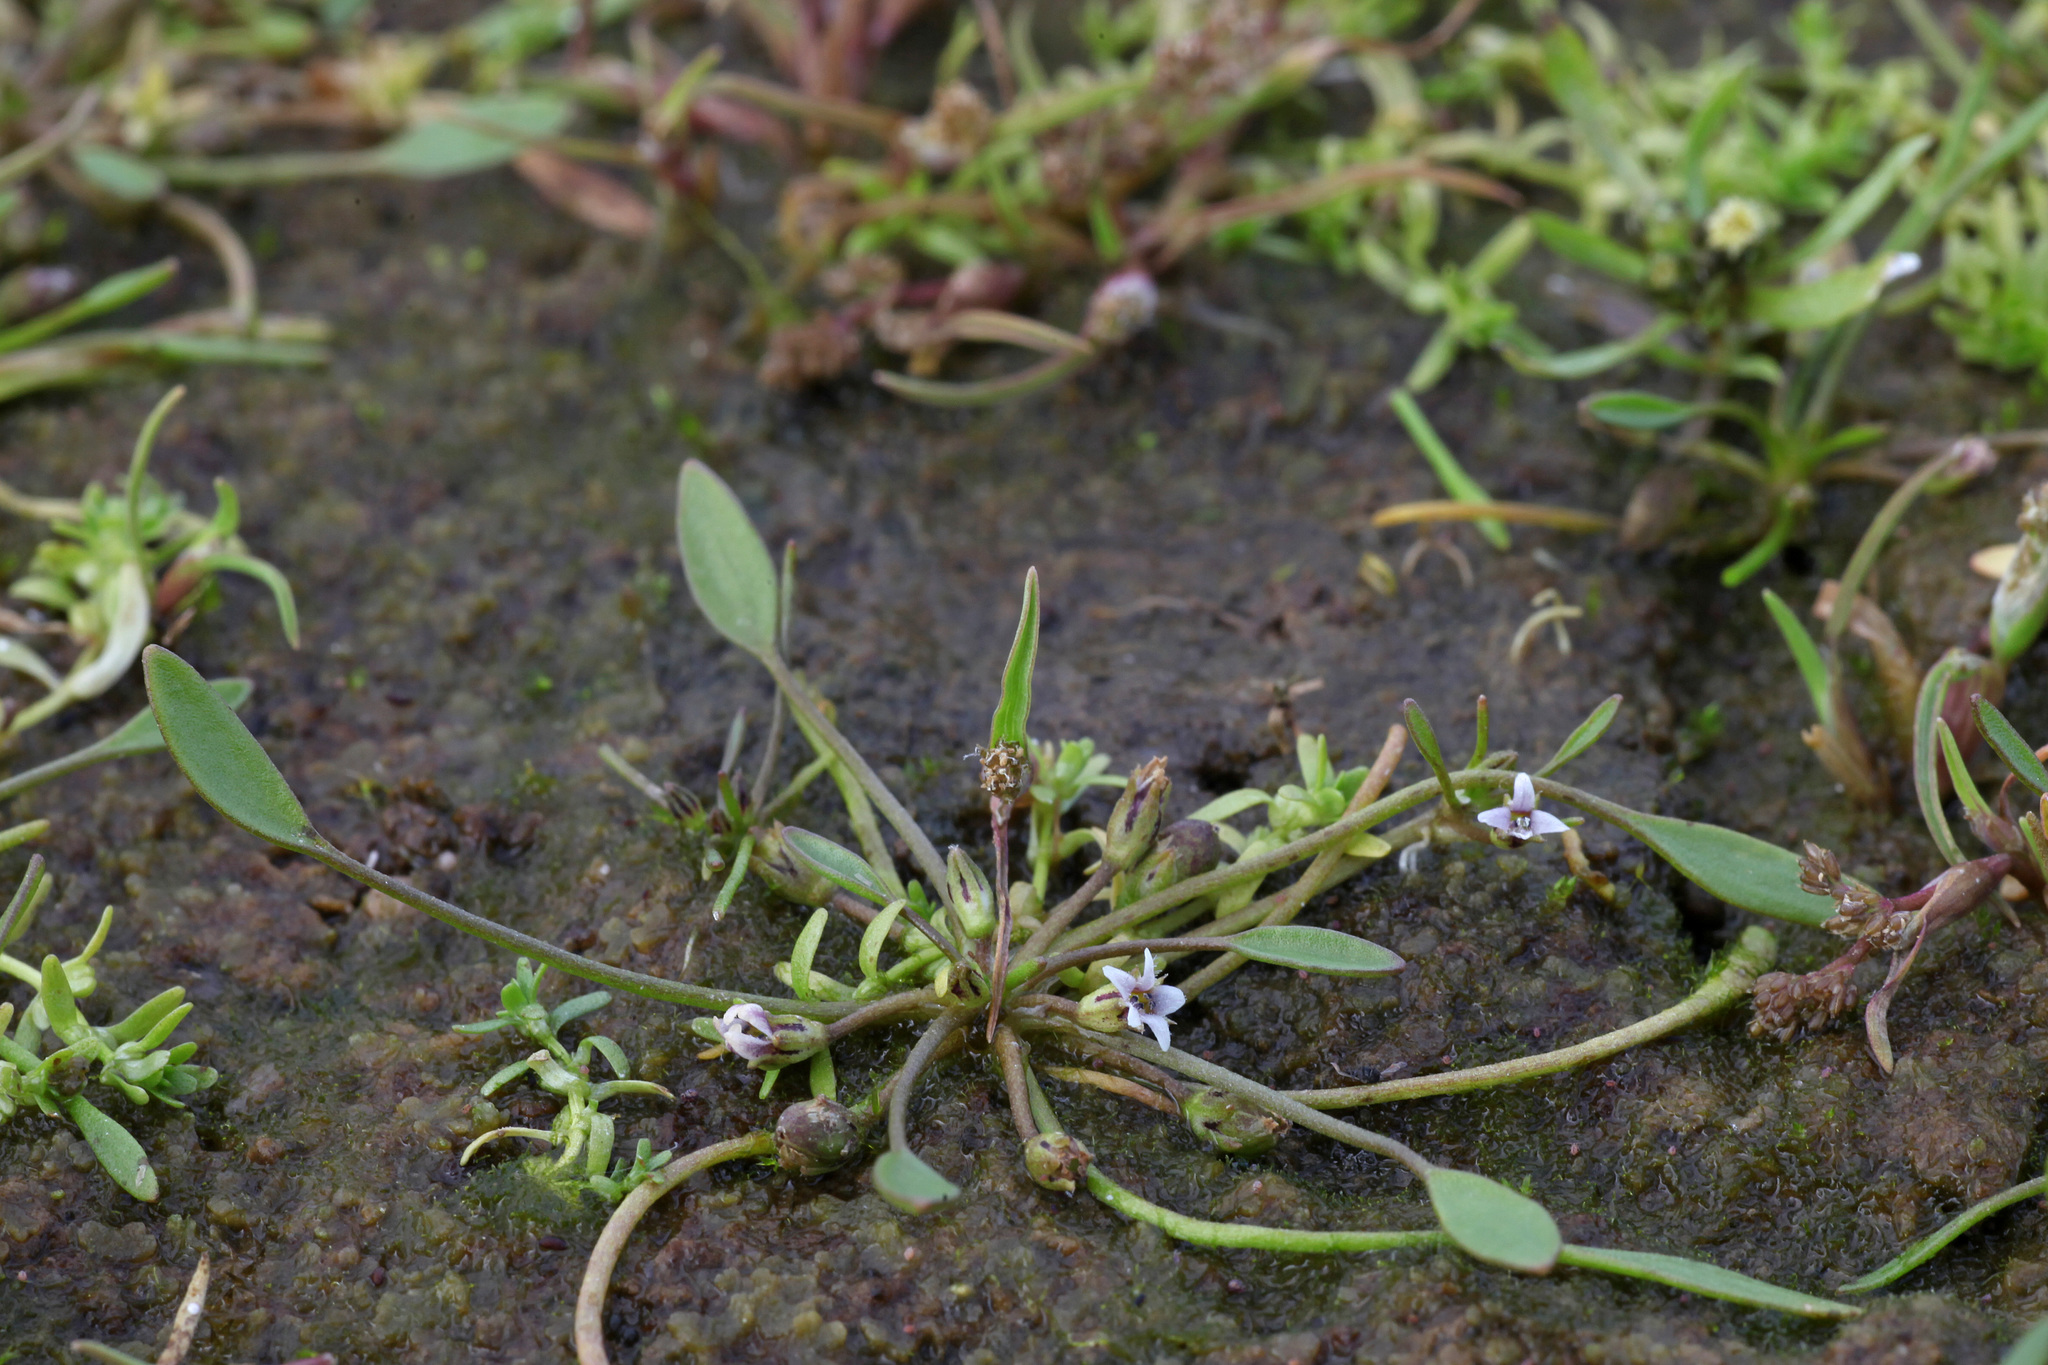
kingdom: Plantae
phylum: Tracheophyta
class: Magnoliopsida
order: Lamiales
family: Scrophulariaceae
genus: Limosella
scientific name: Limosella aquatica
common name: Mudwort
